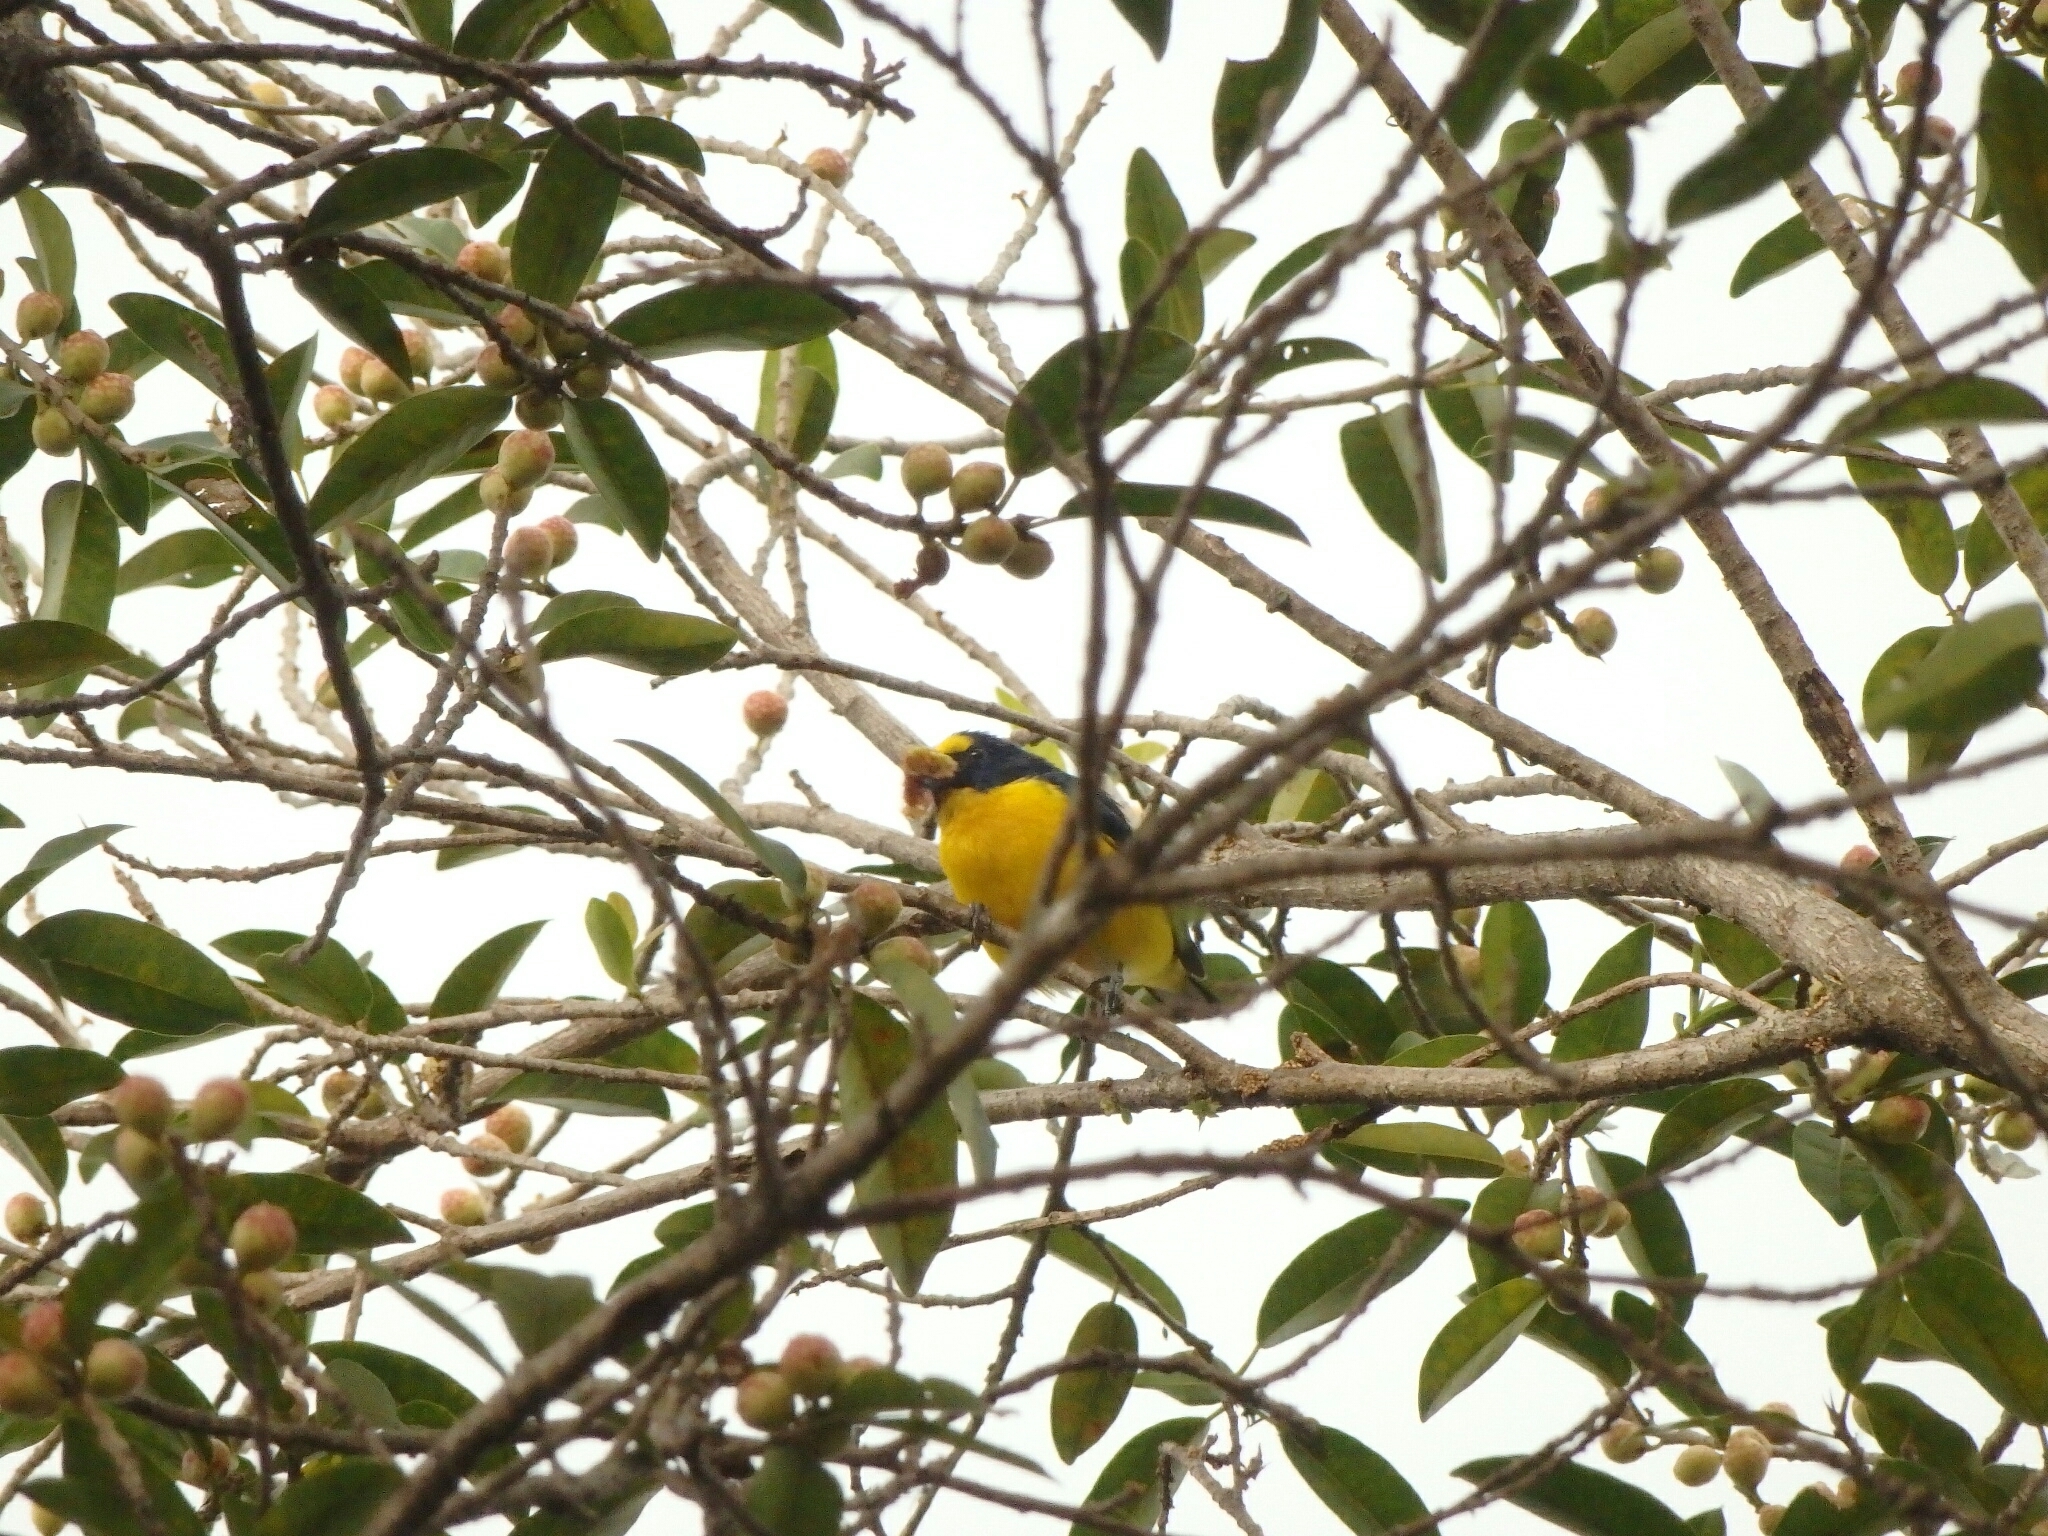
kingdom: Animalia
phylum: Chordata
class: Aves
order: Passeriformes
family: Fringillidae
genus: Euphonia
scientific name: Euphonia hirundinacea
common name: Yellow-throated euphonia
